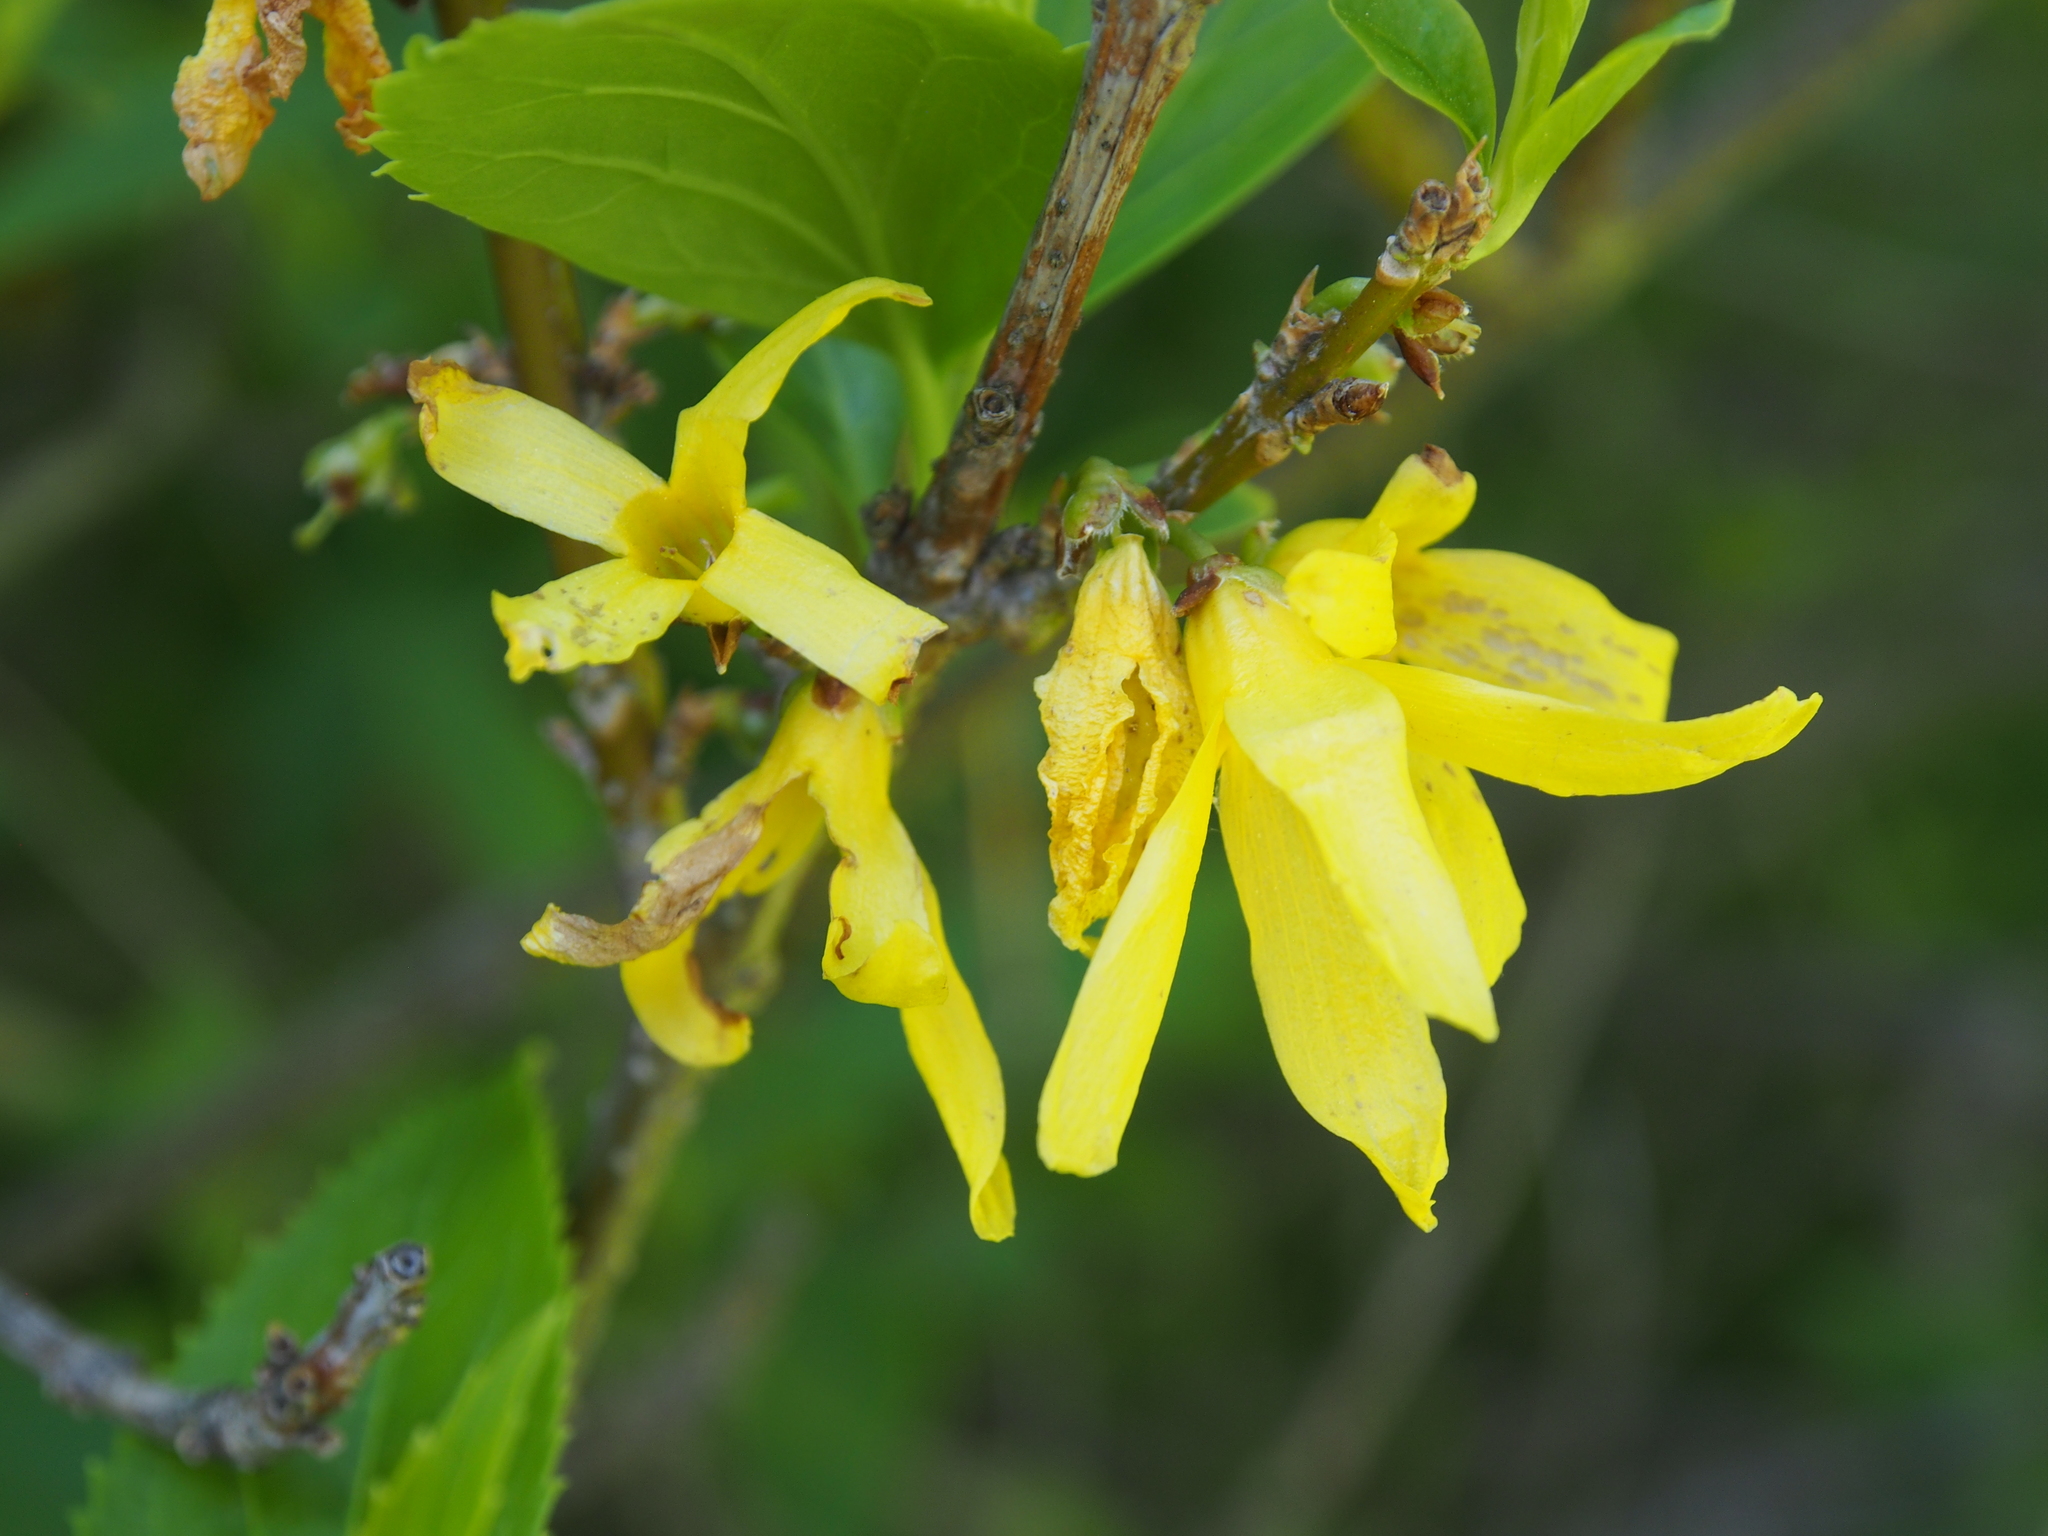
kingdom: Plantae
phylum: Tracheophyta
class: Magnoliopsida
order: Lamiales
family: Oleaceae
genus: Forsythia
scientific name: Forsythia intermedia
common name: Forsythia
